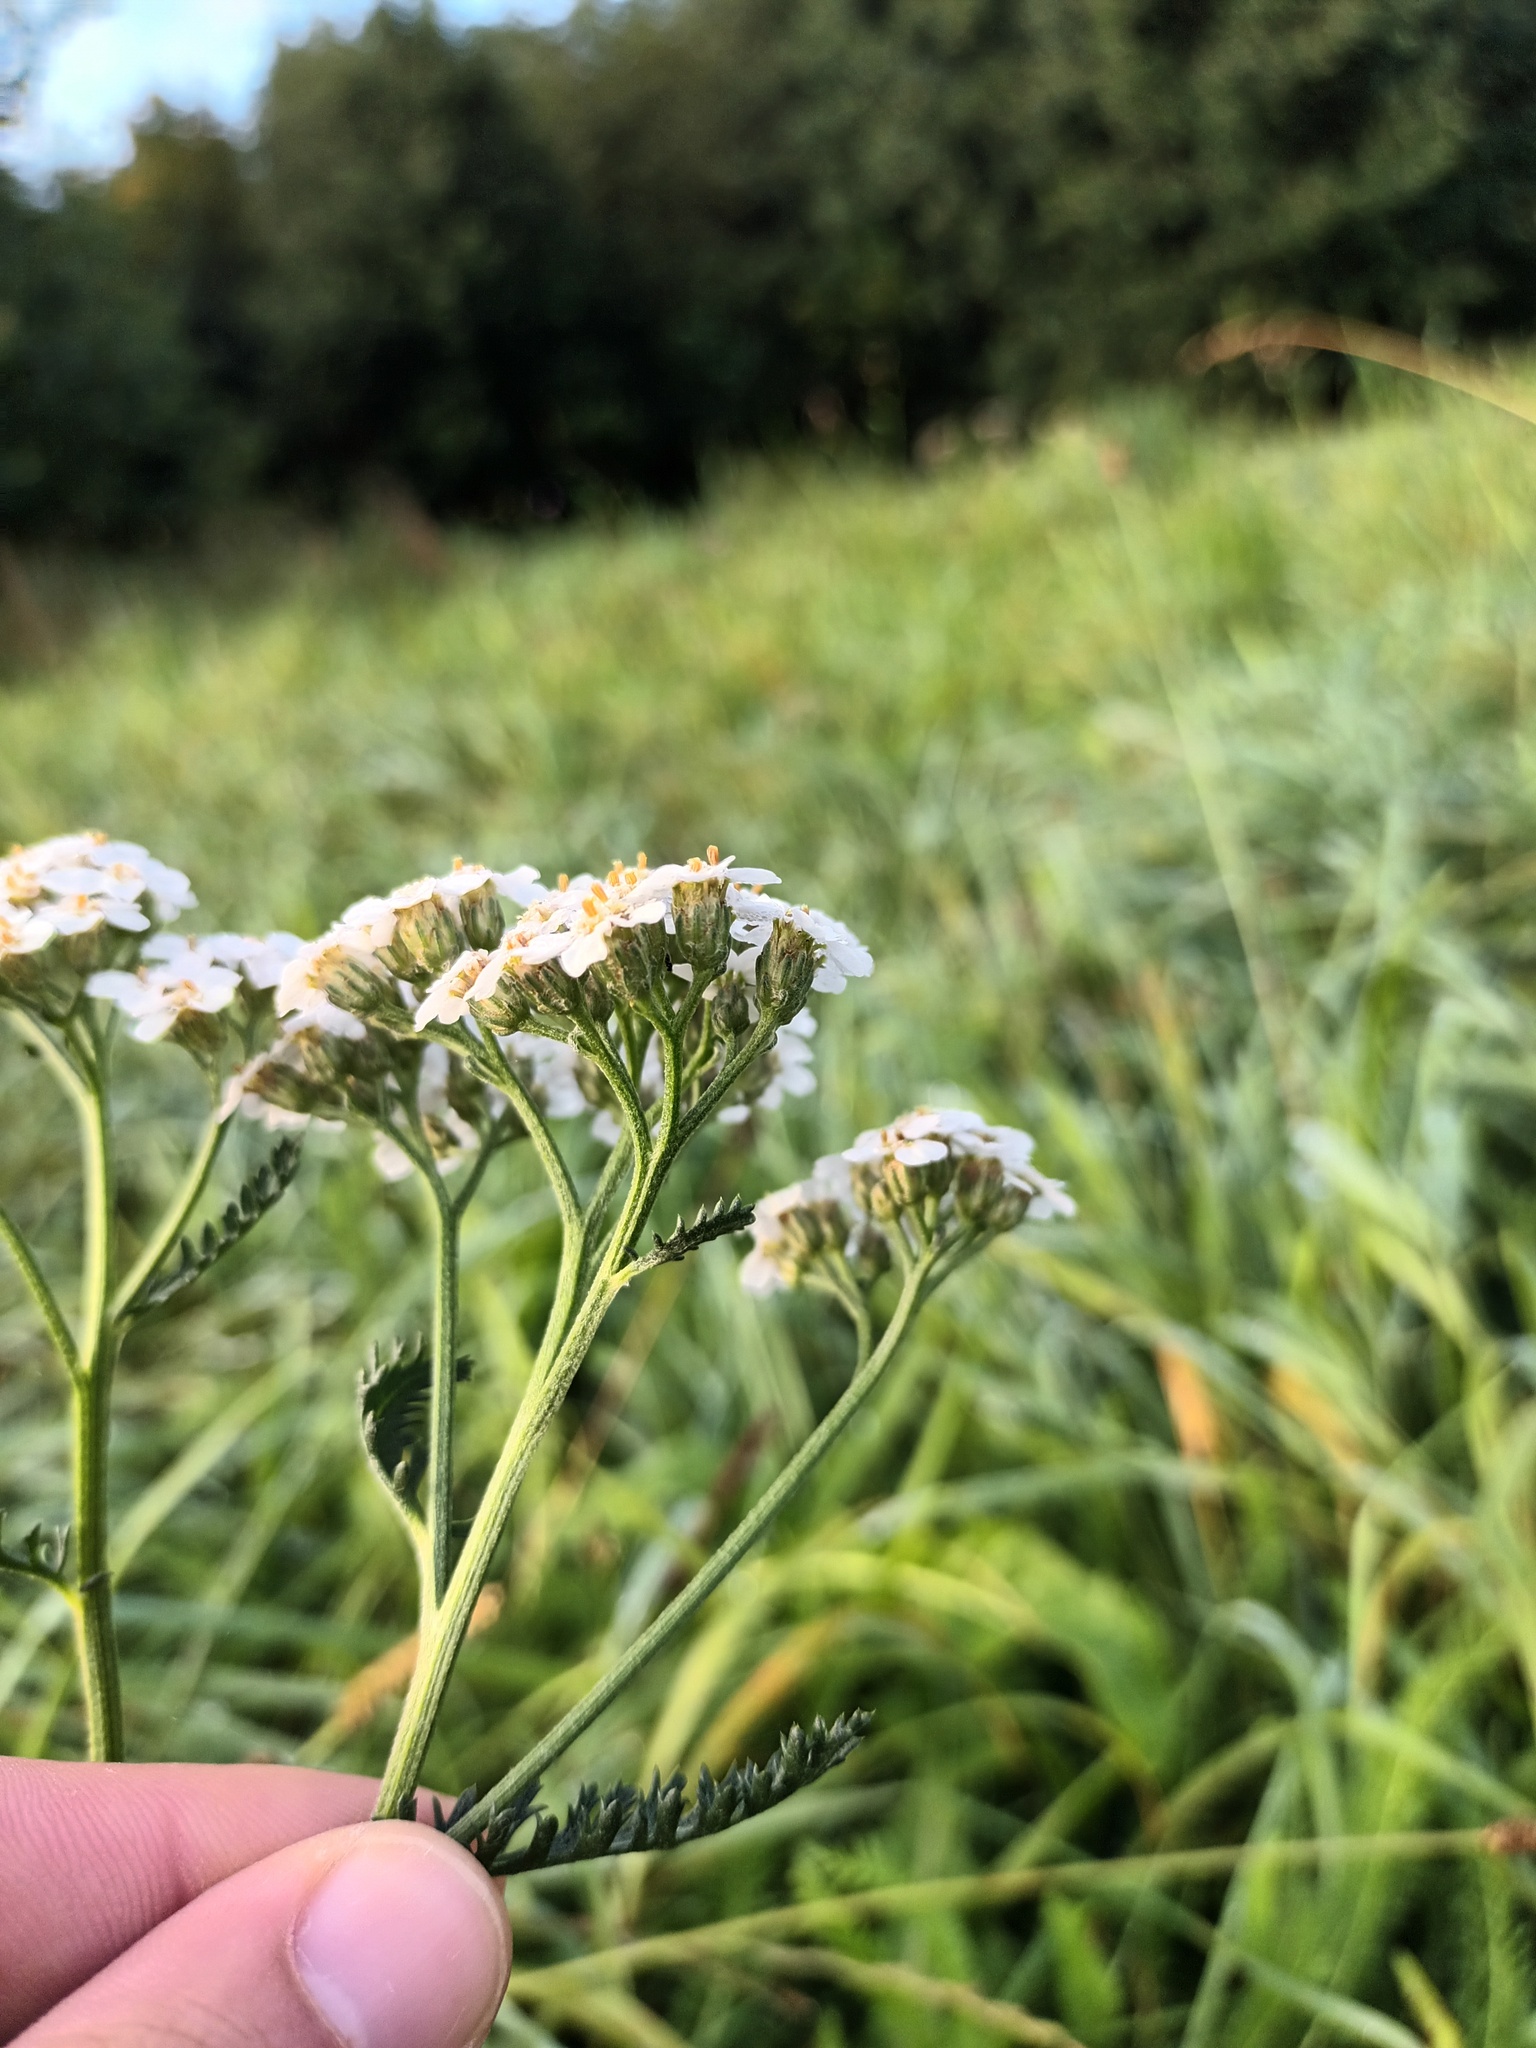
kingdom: Plantae
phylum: Tracheophyta
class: Magnoliopsida
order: Asterales
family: Asteraceae
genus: Achillea
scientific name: Achillea millefolium
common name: Yarrow
